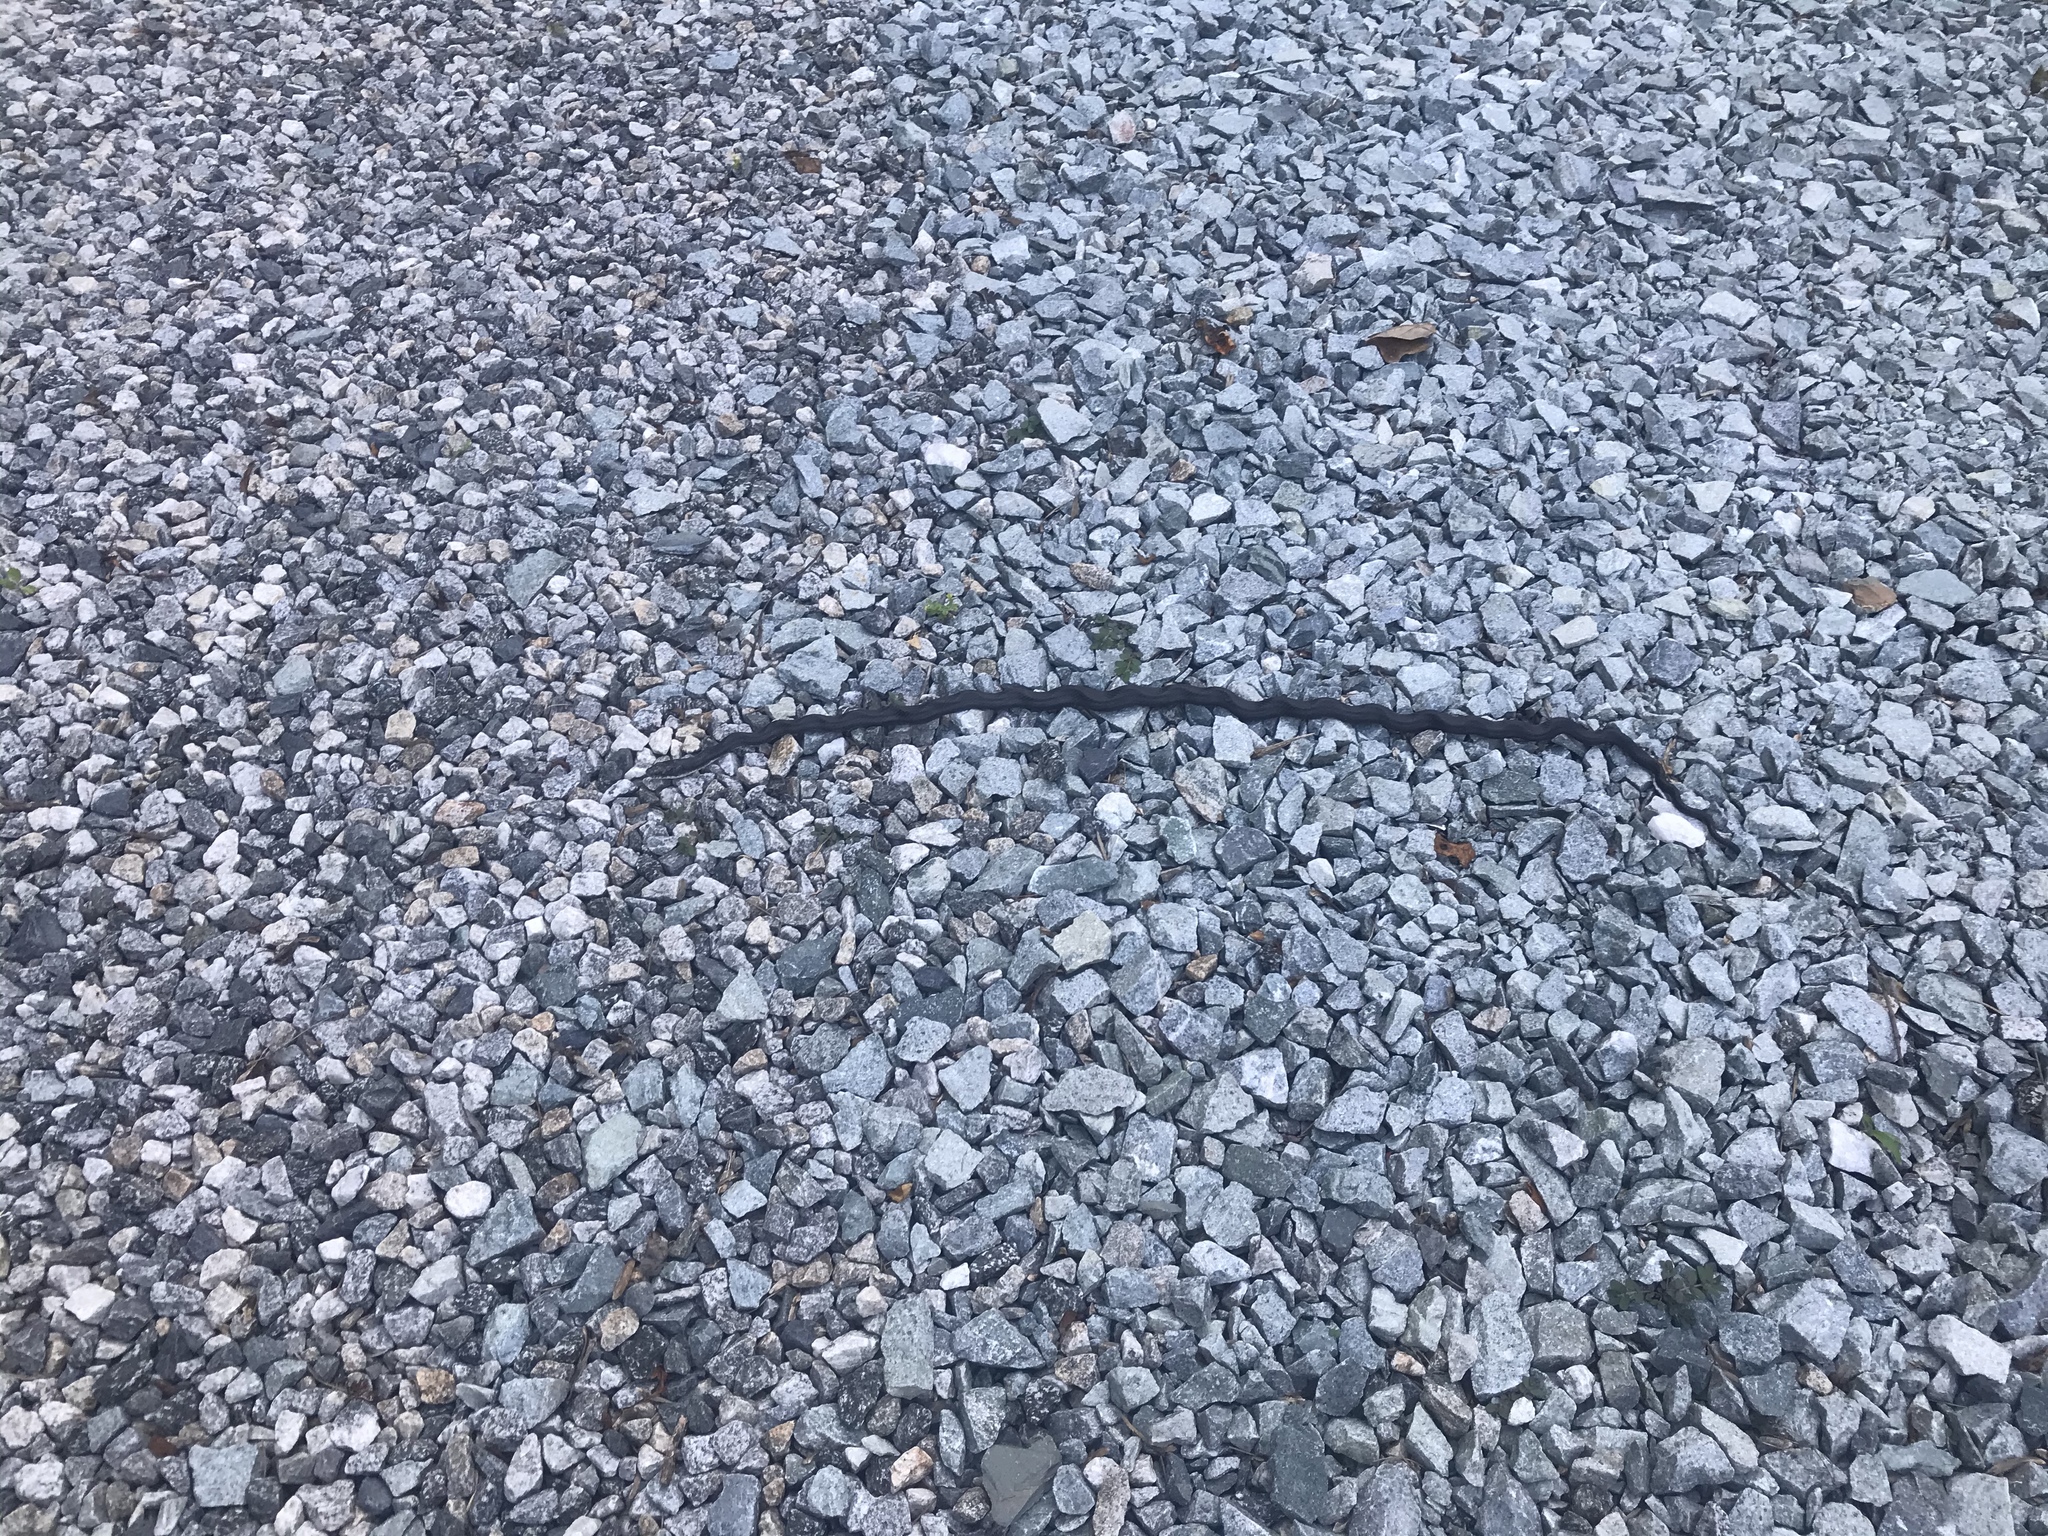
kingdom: Animalia
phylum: Chordata
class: Squamata
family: Colubridae
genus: Pantherophis
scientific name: Pantherophis alleghaniensis
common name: Eastern rat snake
